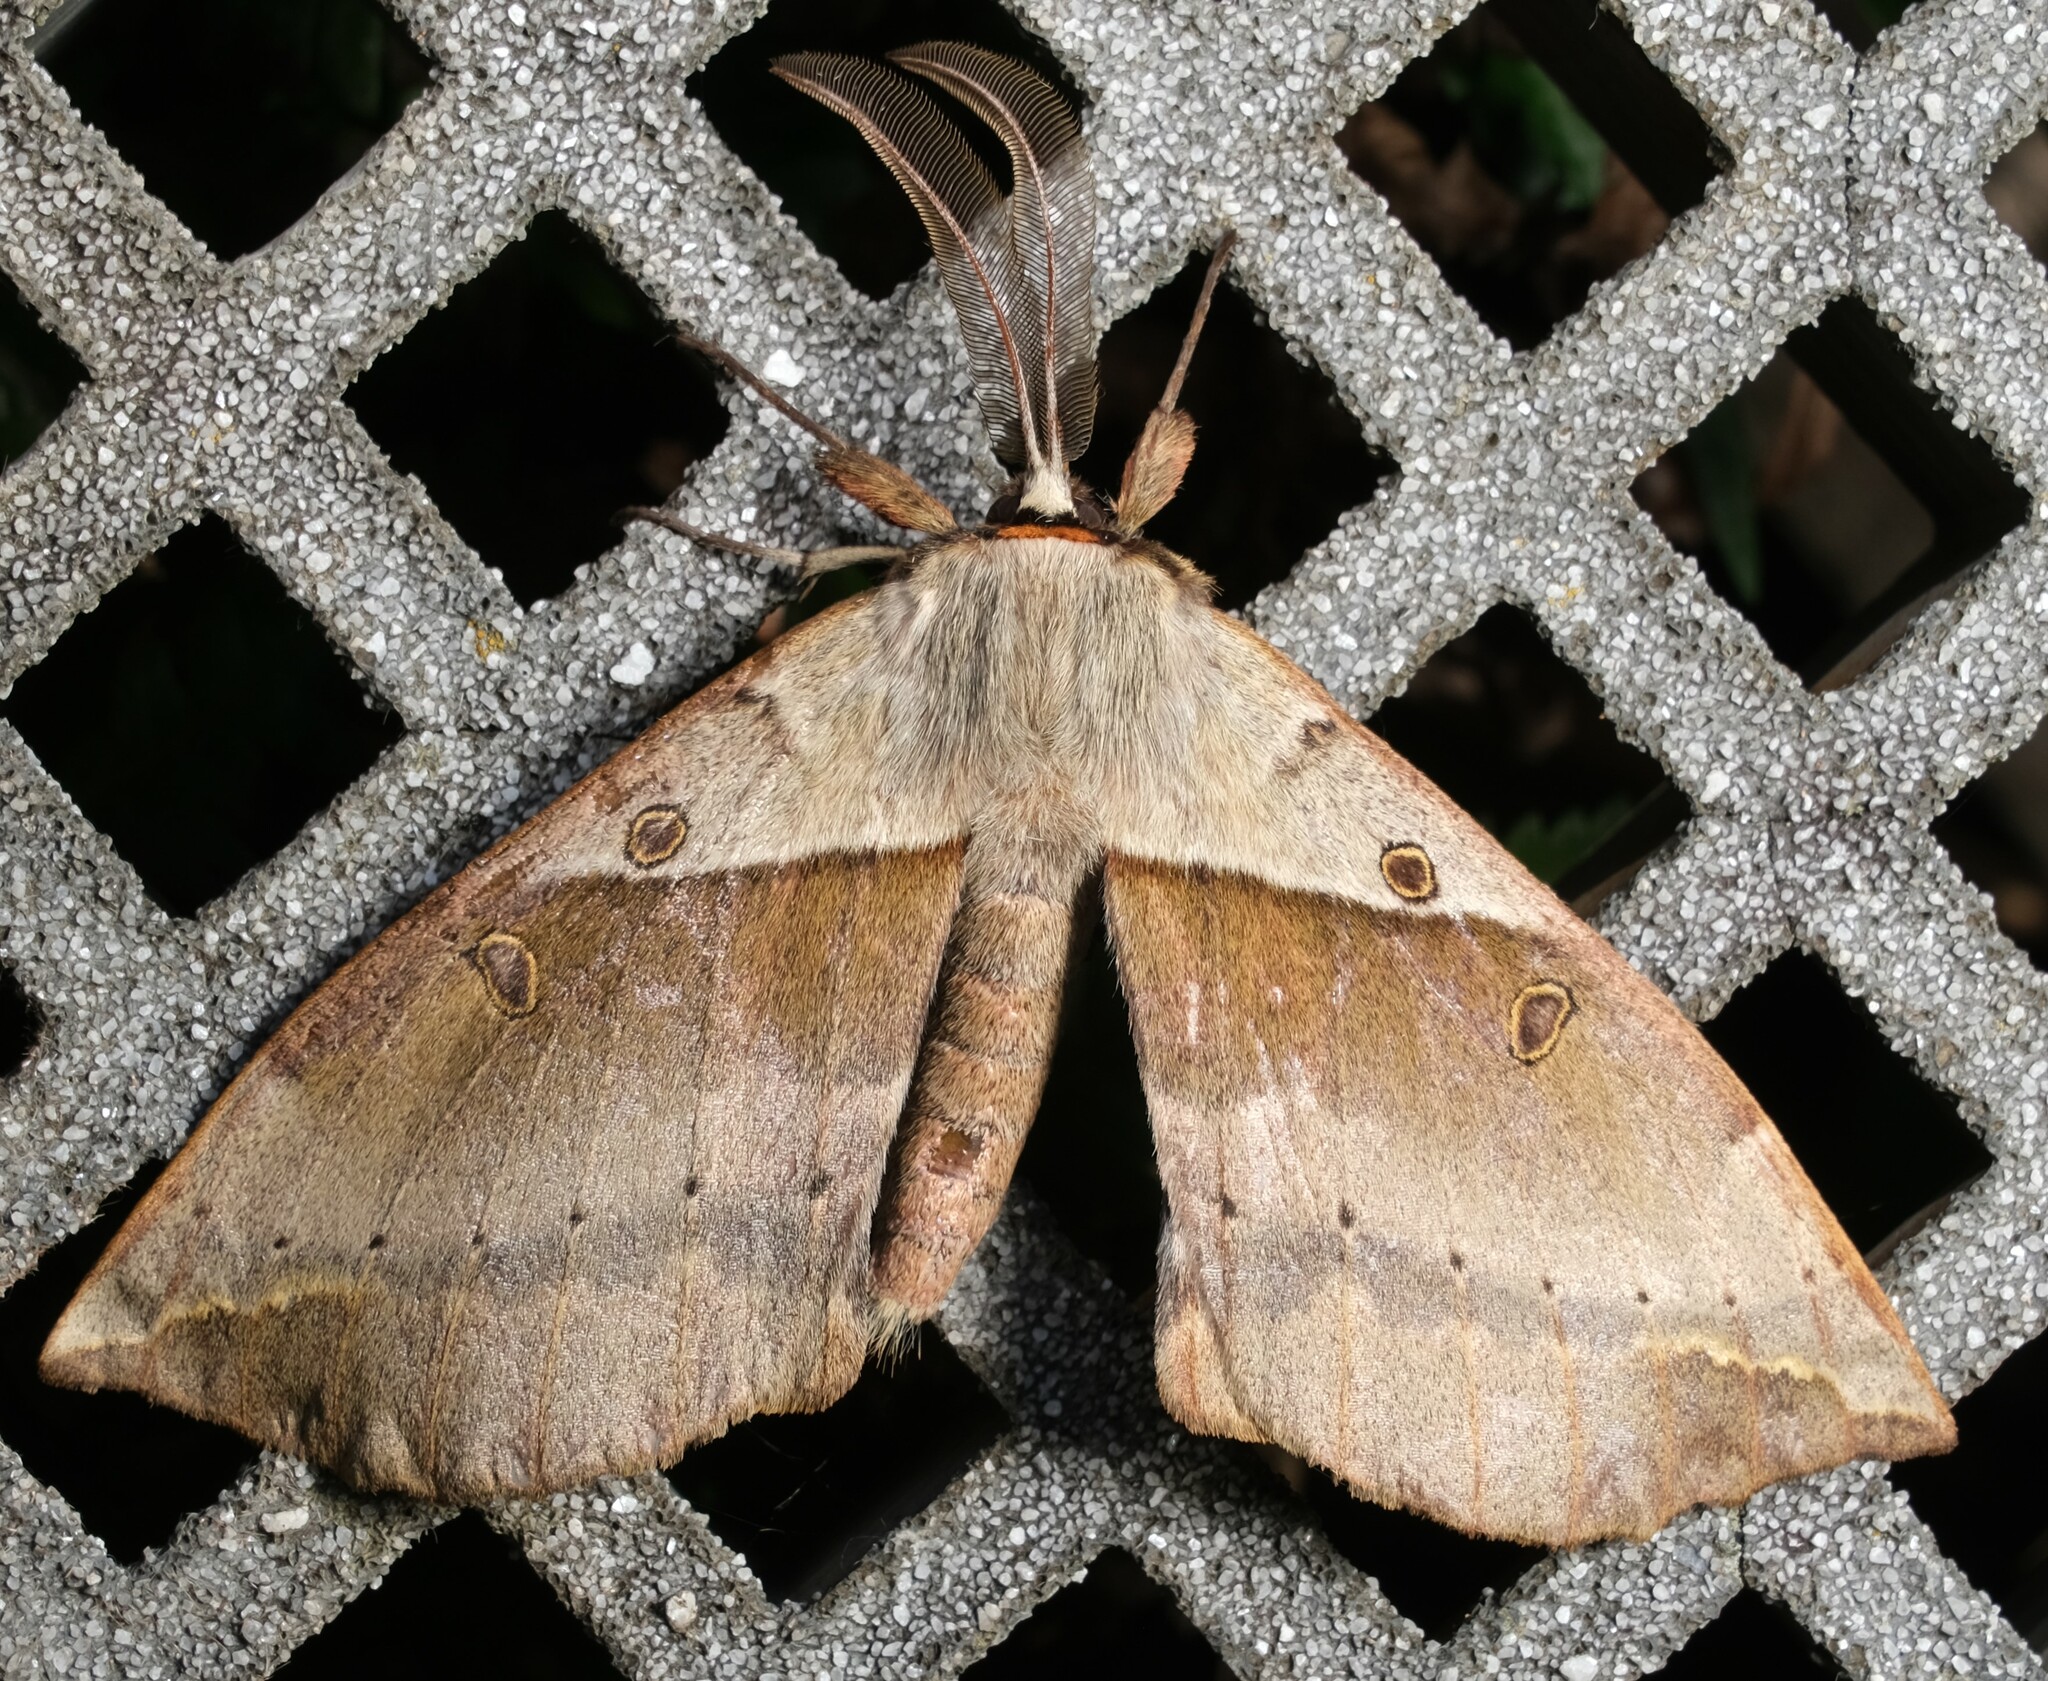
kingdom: Animalia
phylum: Arthropoda
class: Insecta
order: Lepidoptera
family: Anthelidae
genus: Chelepteryx
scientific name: Chelepteryx chalepteryx
